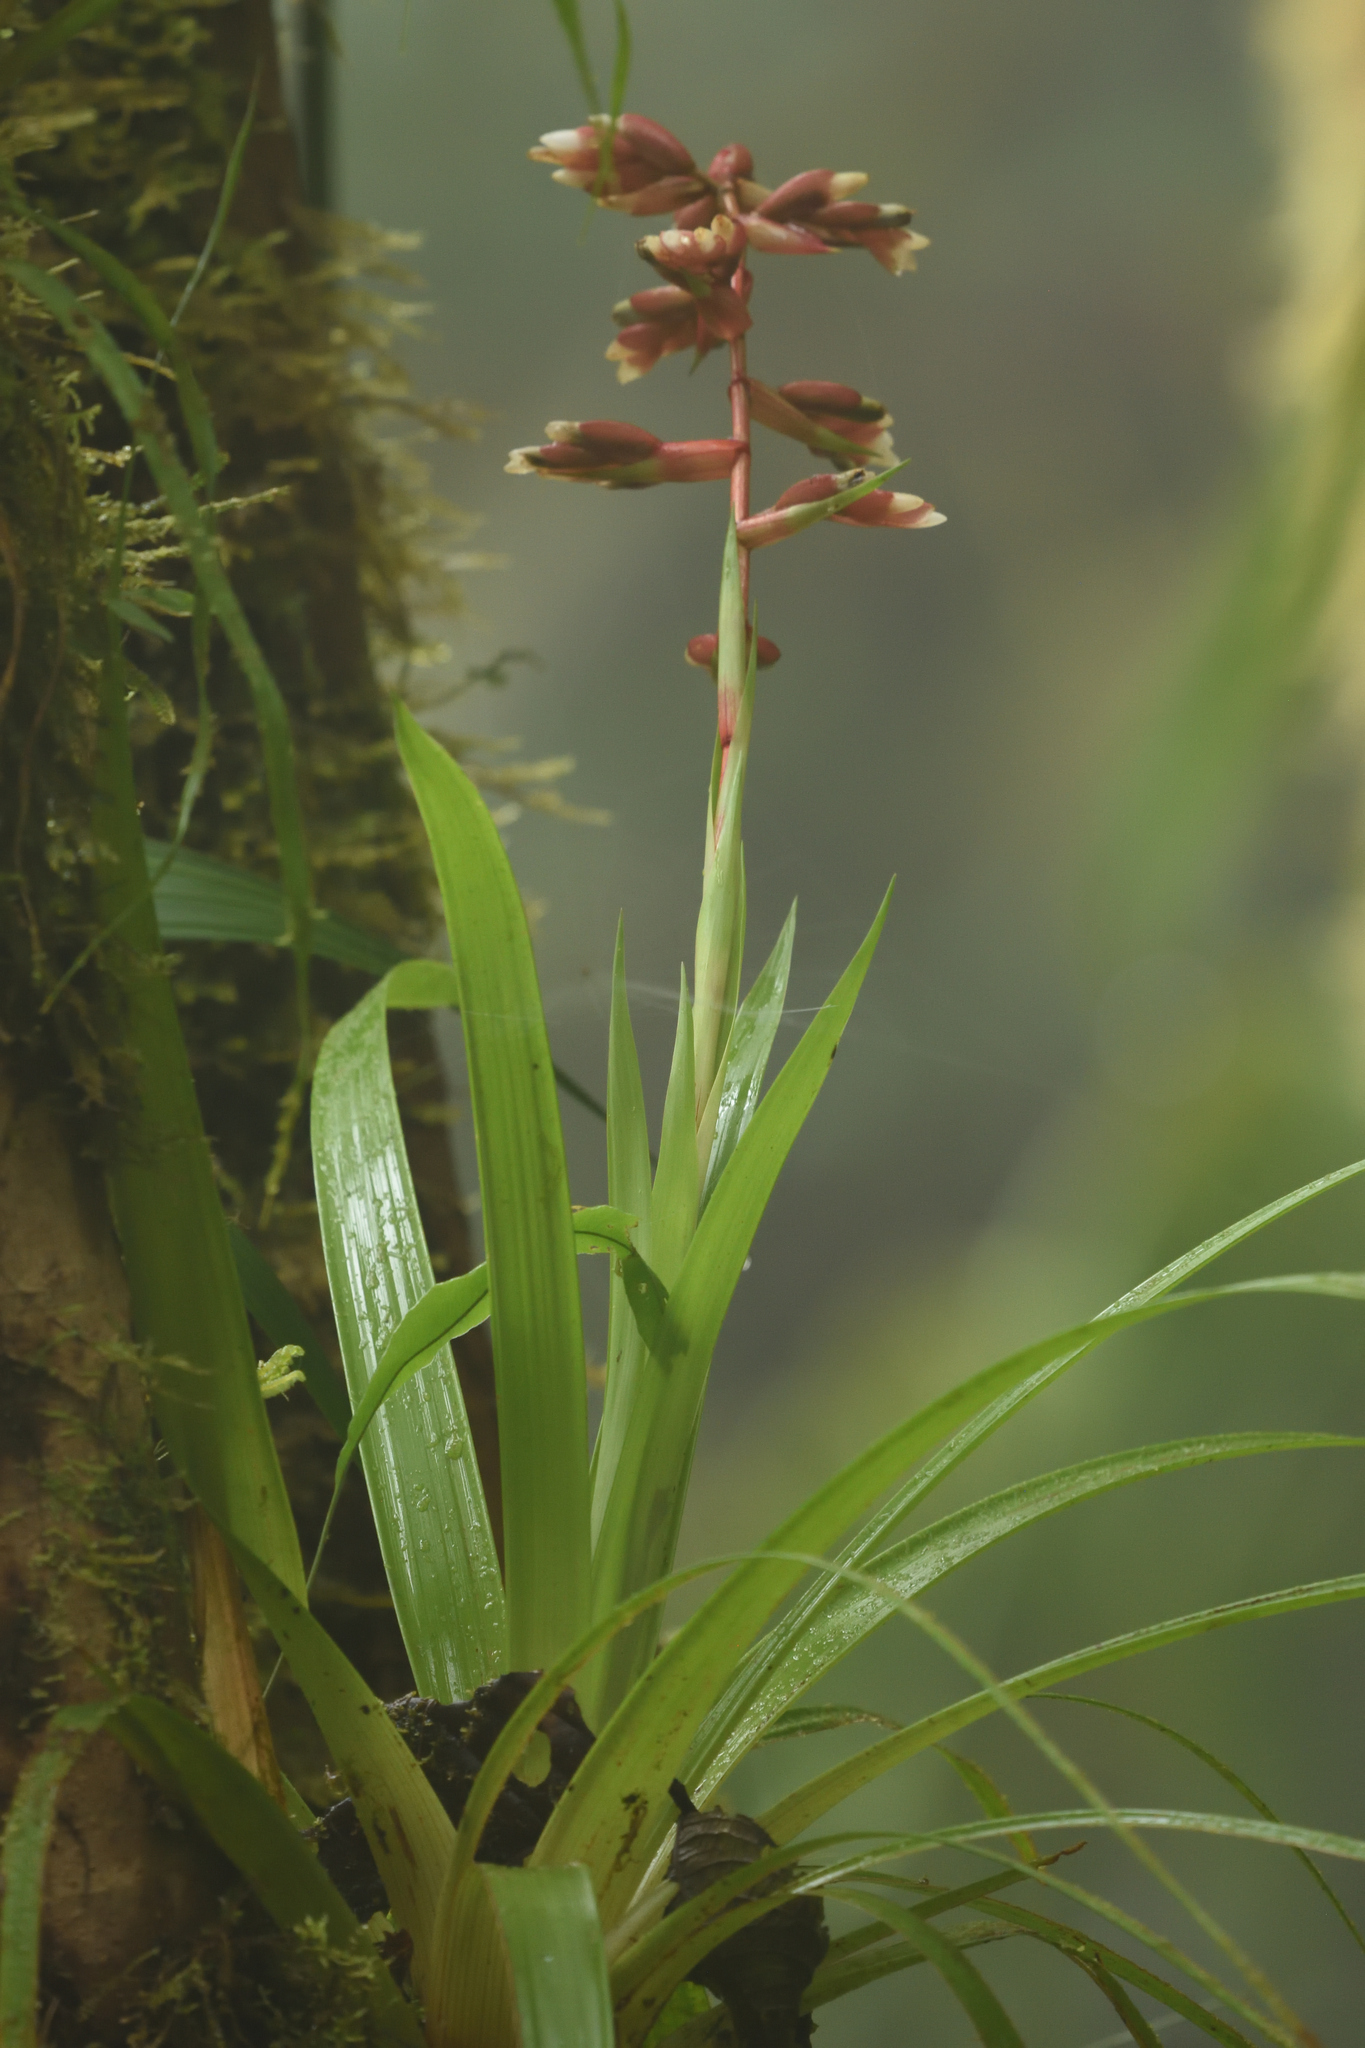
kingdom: Plantae
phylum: Tracheophyta
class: Liliopsida
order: Poales
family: Bromeliaceae
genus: Guzmania
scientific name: Guzmania laeta
